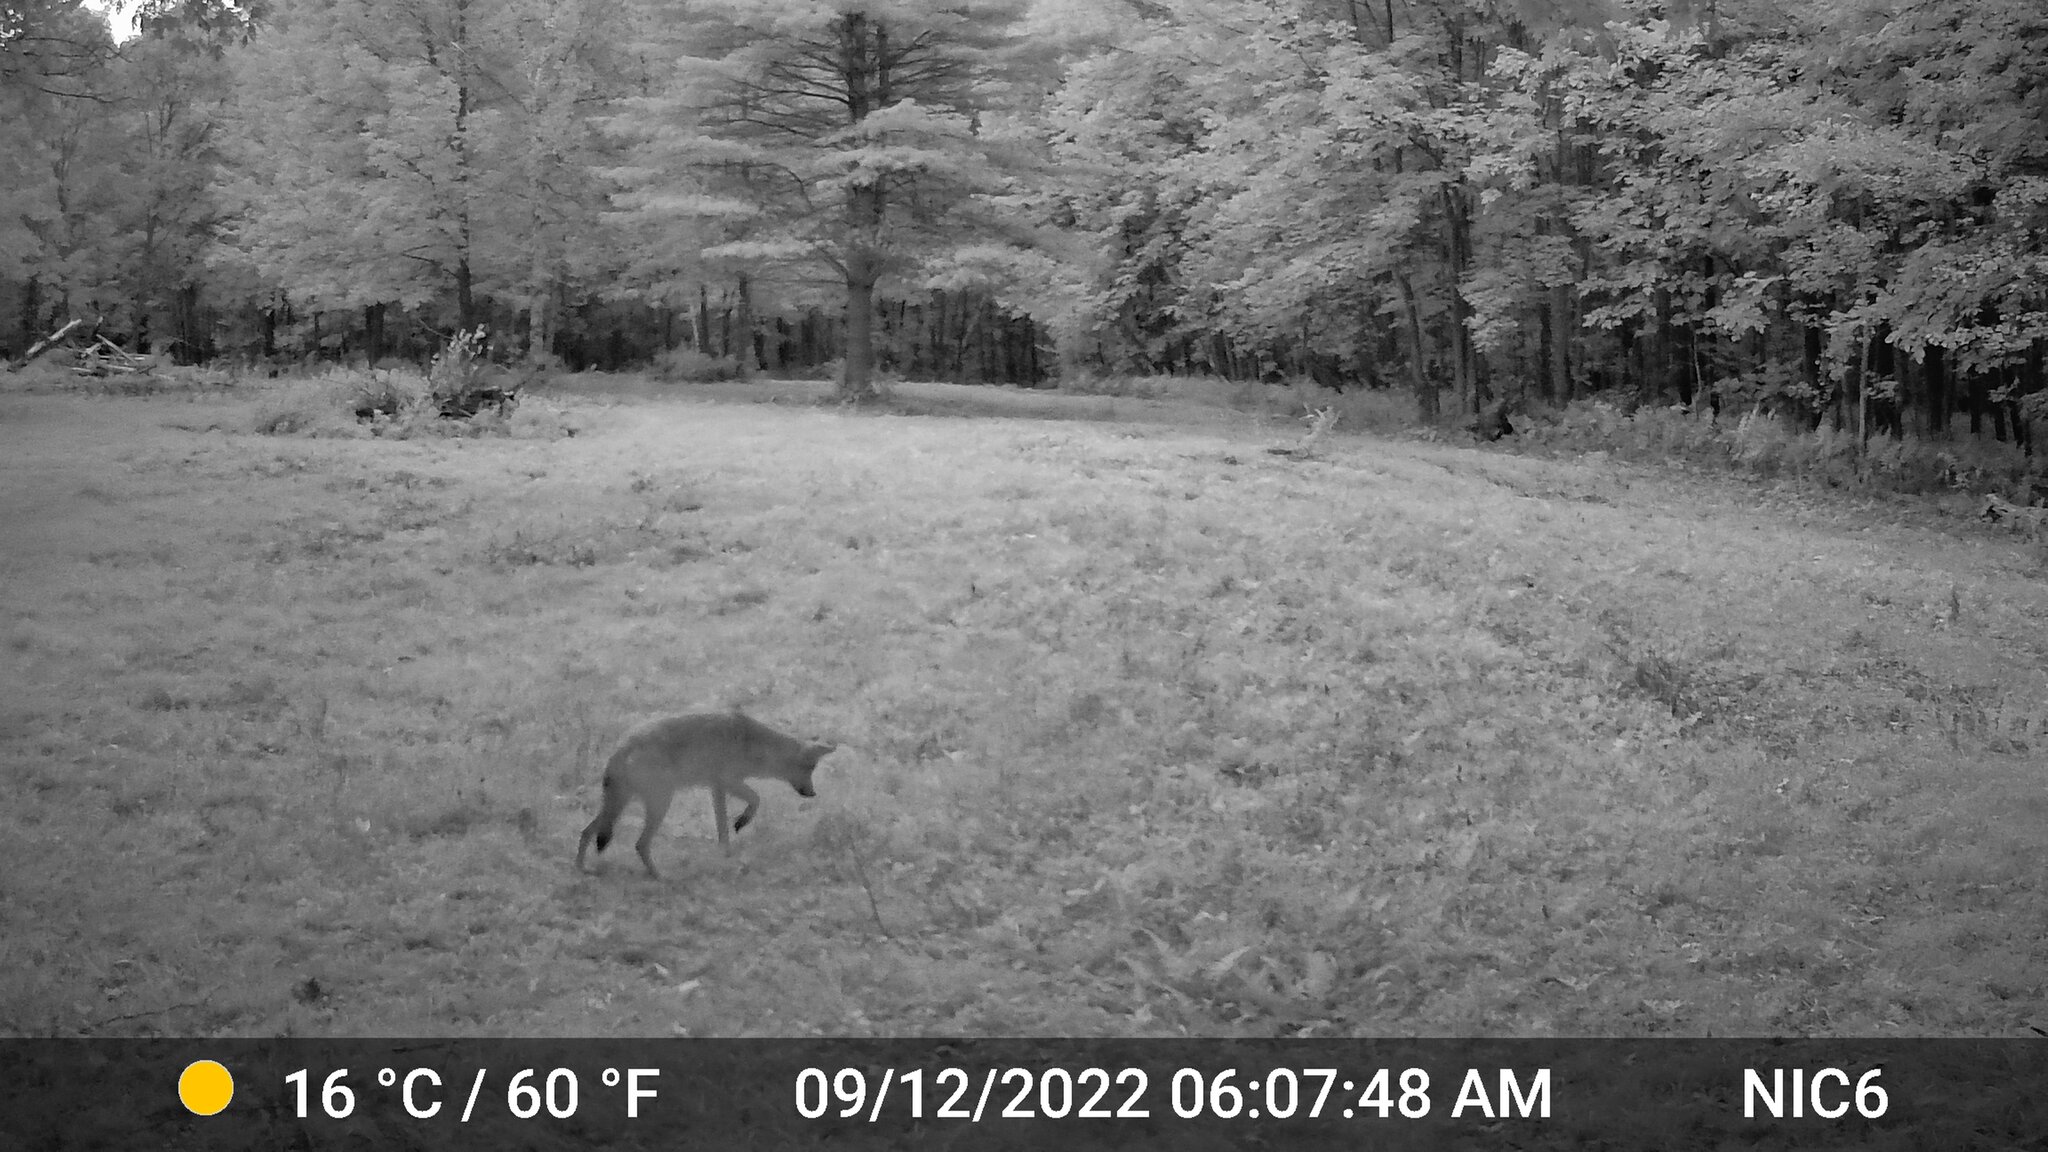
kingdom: Animalia
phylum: Chordata
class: Mammalia
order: Carnivora
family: Canidae
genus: Canis
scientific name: Canis latrans
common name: Coyote
